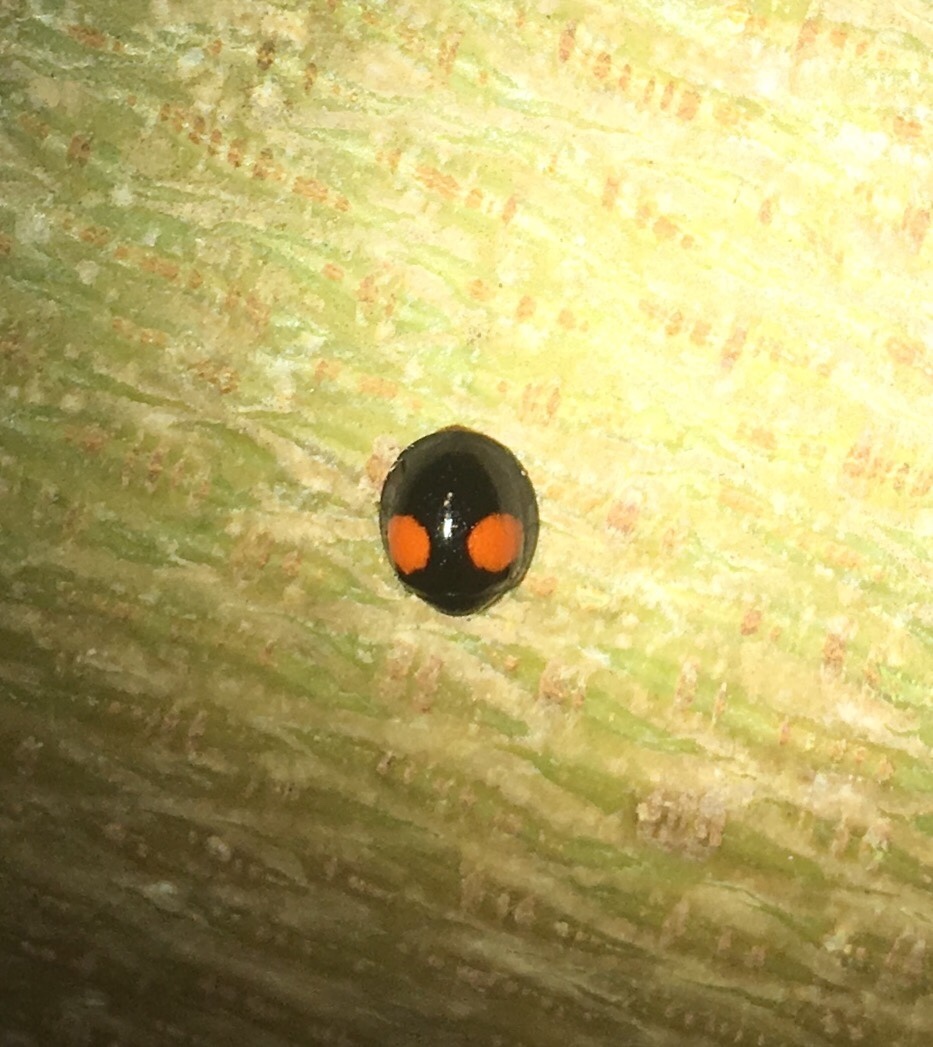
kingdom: Animalia
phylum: Arthropoda
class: Insecta
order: Coleoptera
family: Coccinellidae
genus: Chilocorus
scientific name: Chilocorus cacti
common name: Cactus lady beetle
